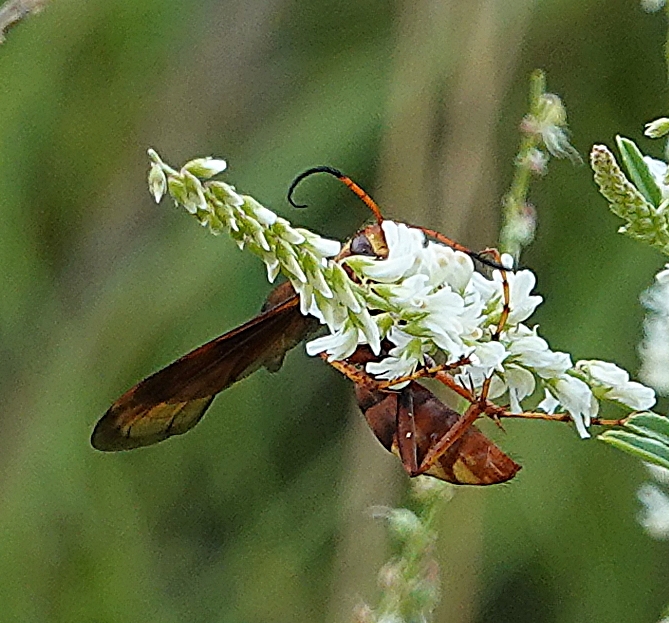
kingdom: Animalia
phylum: Arthropoda
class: Insecta
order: Hymenoptera
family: Pompilidae
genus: Poecilopompilus
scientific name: Poecilopompilus algidus
